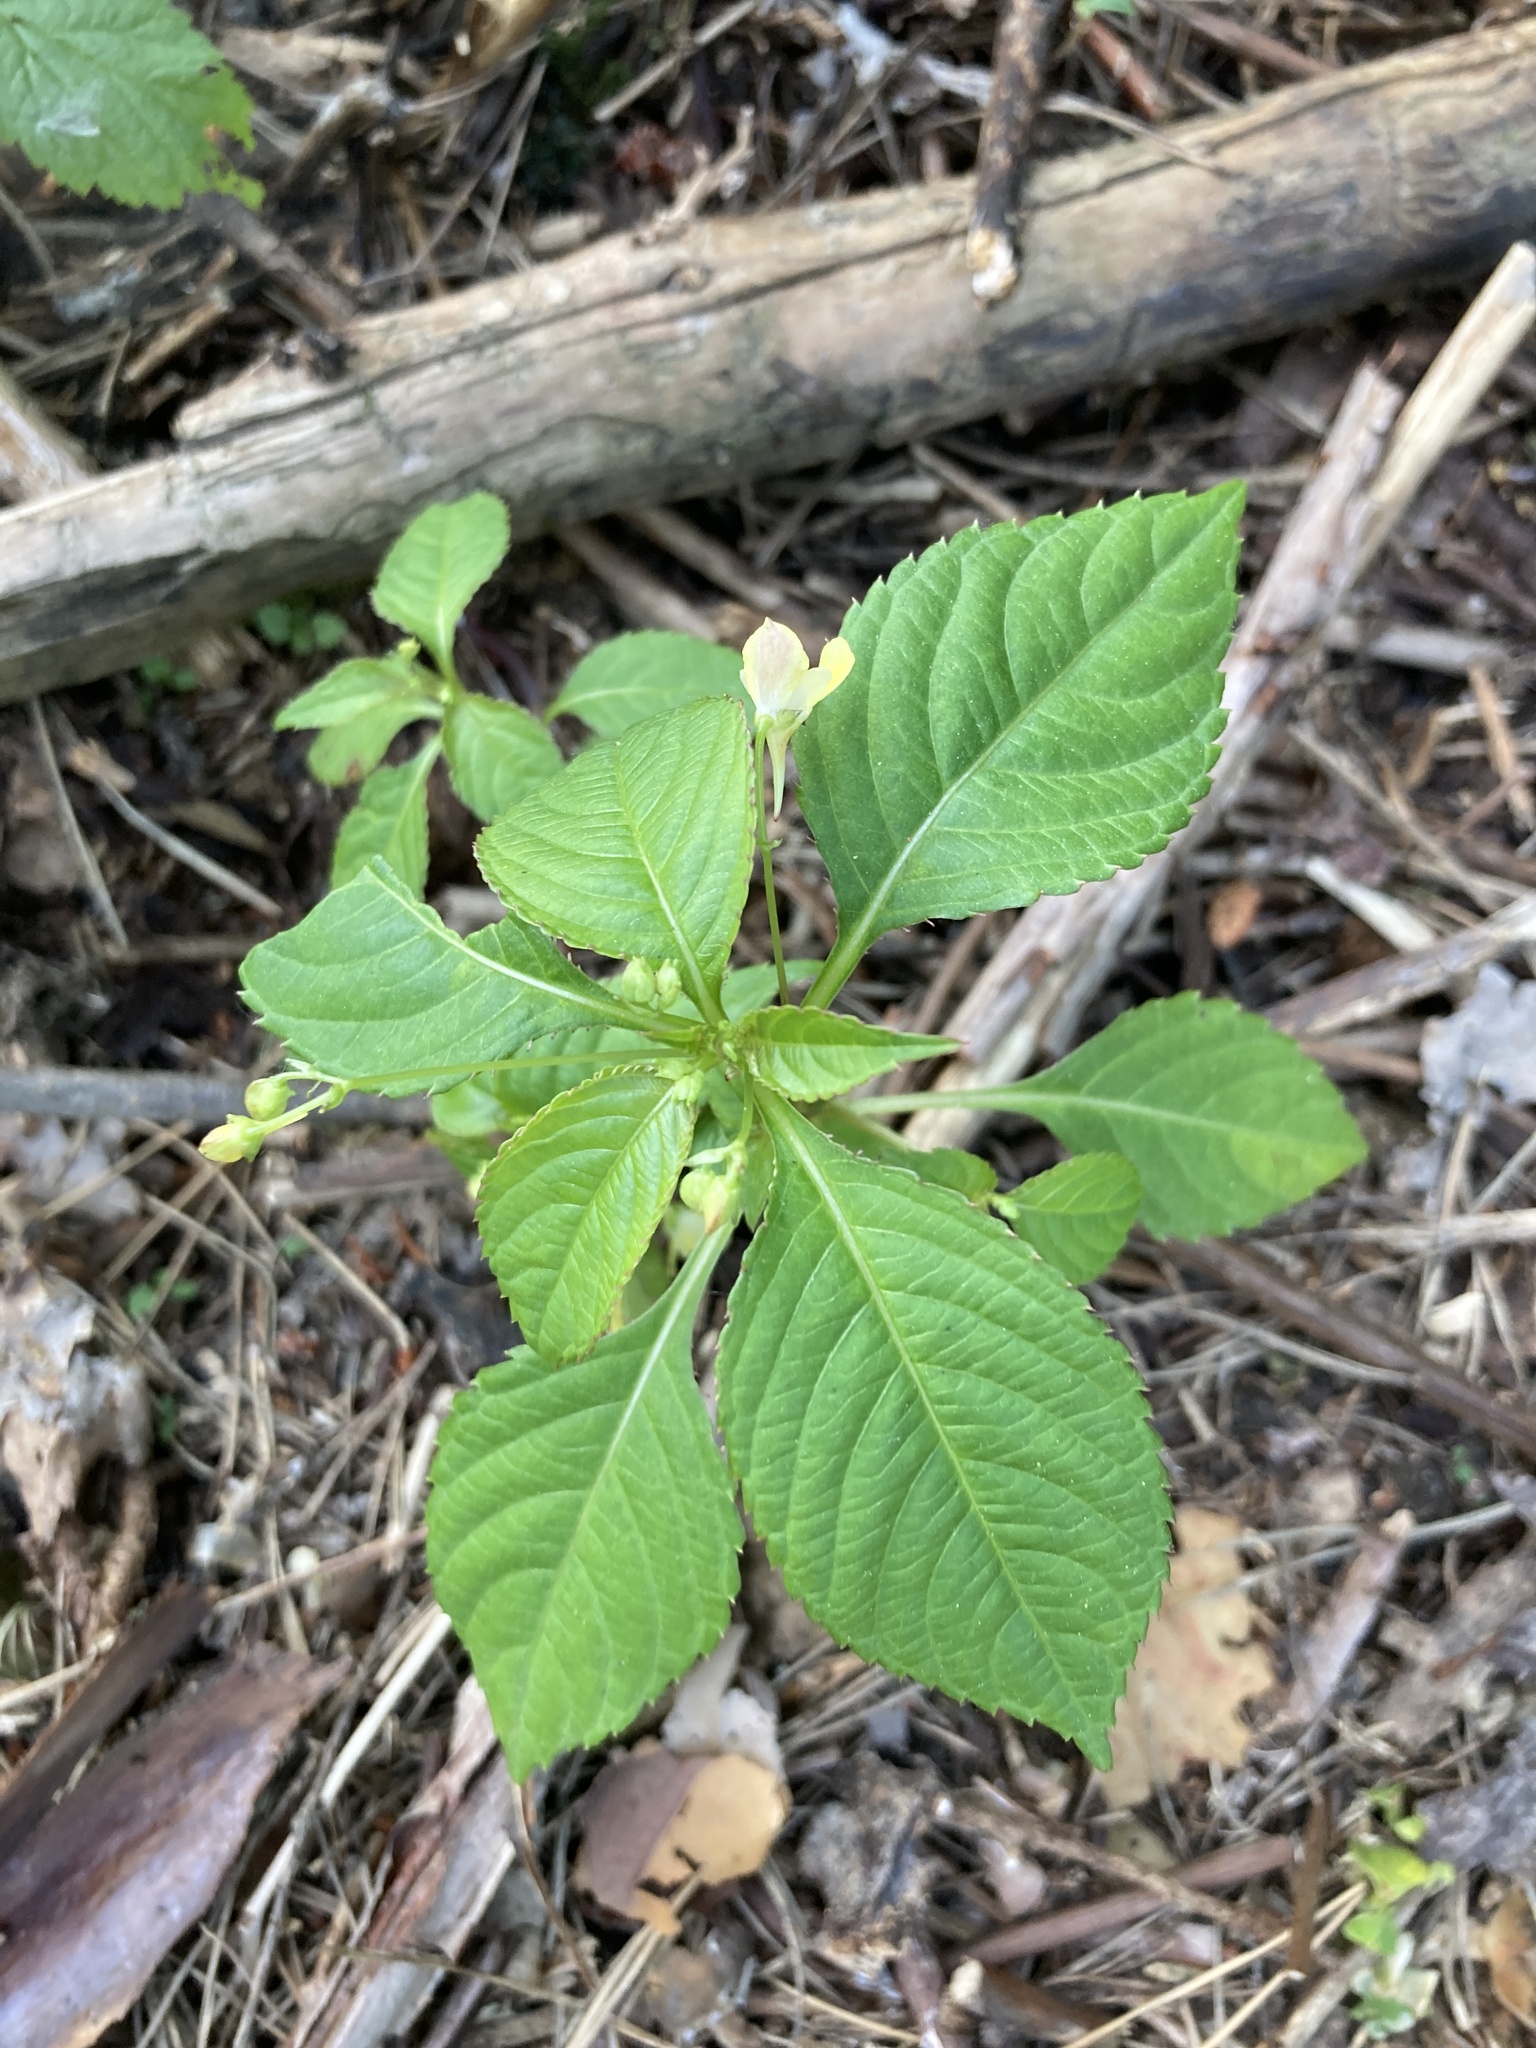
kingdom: Plantae
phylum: Tracheophyta
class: Magnoliopsida
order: Ericales
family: Balsaminaceae
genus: Impatiens
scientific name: Impatiens parviflora
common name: Small balsam
